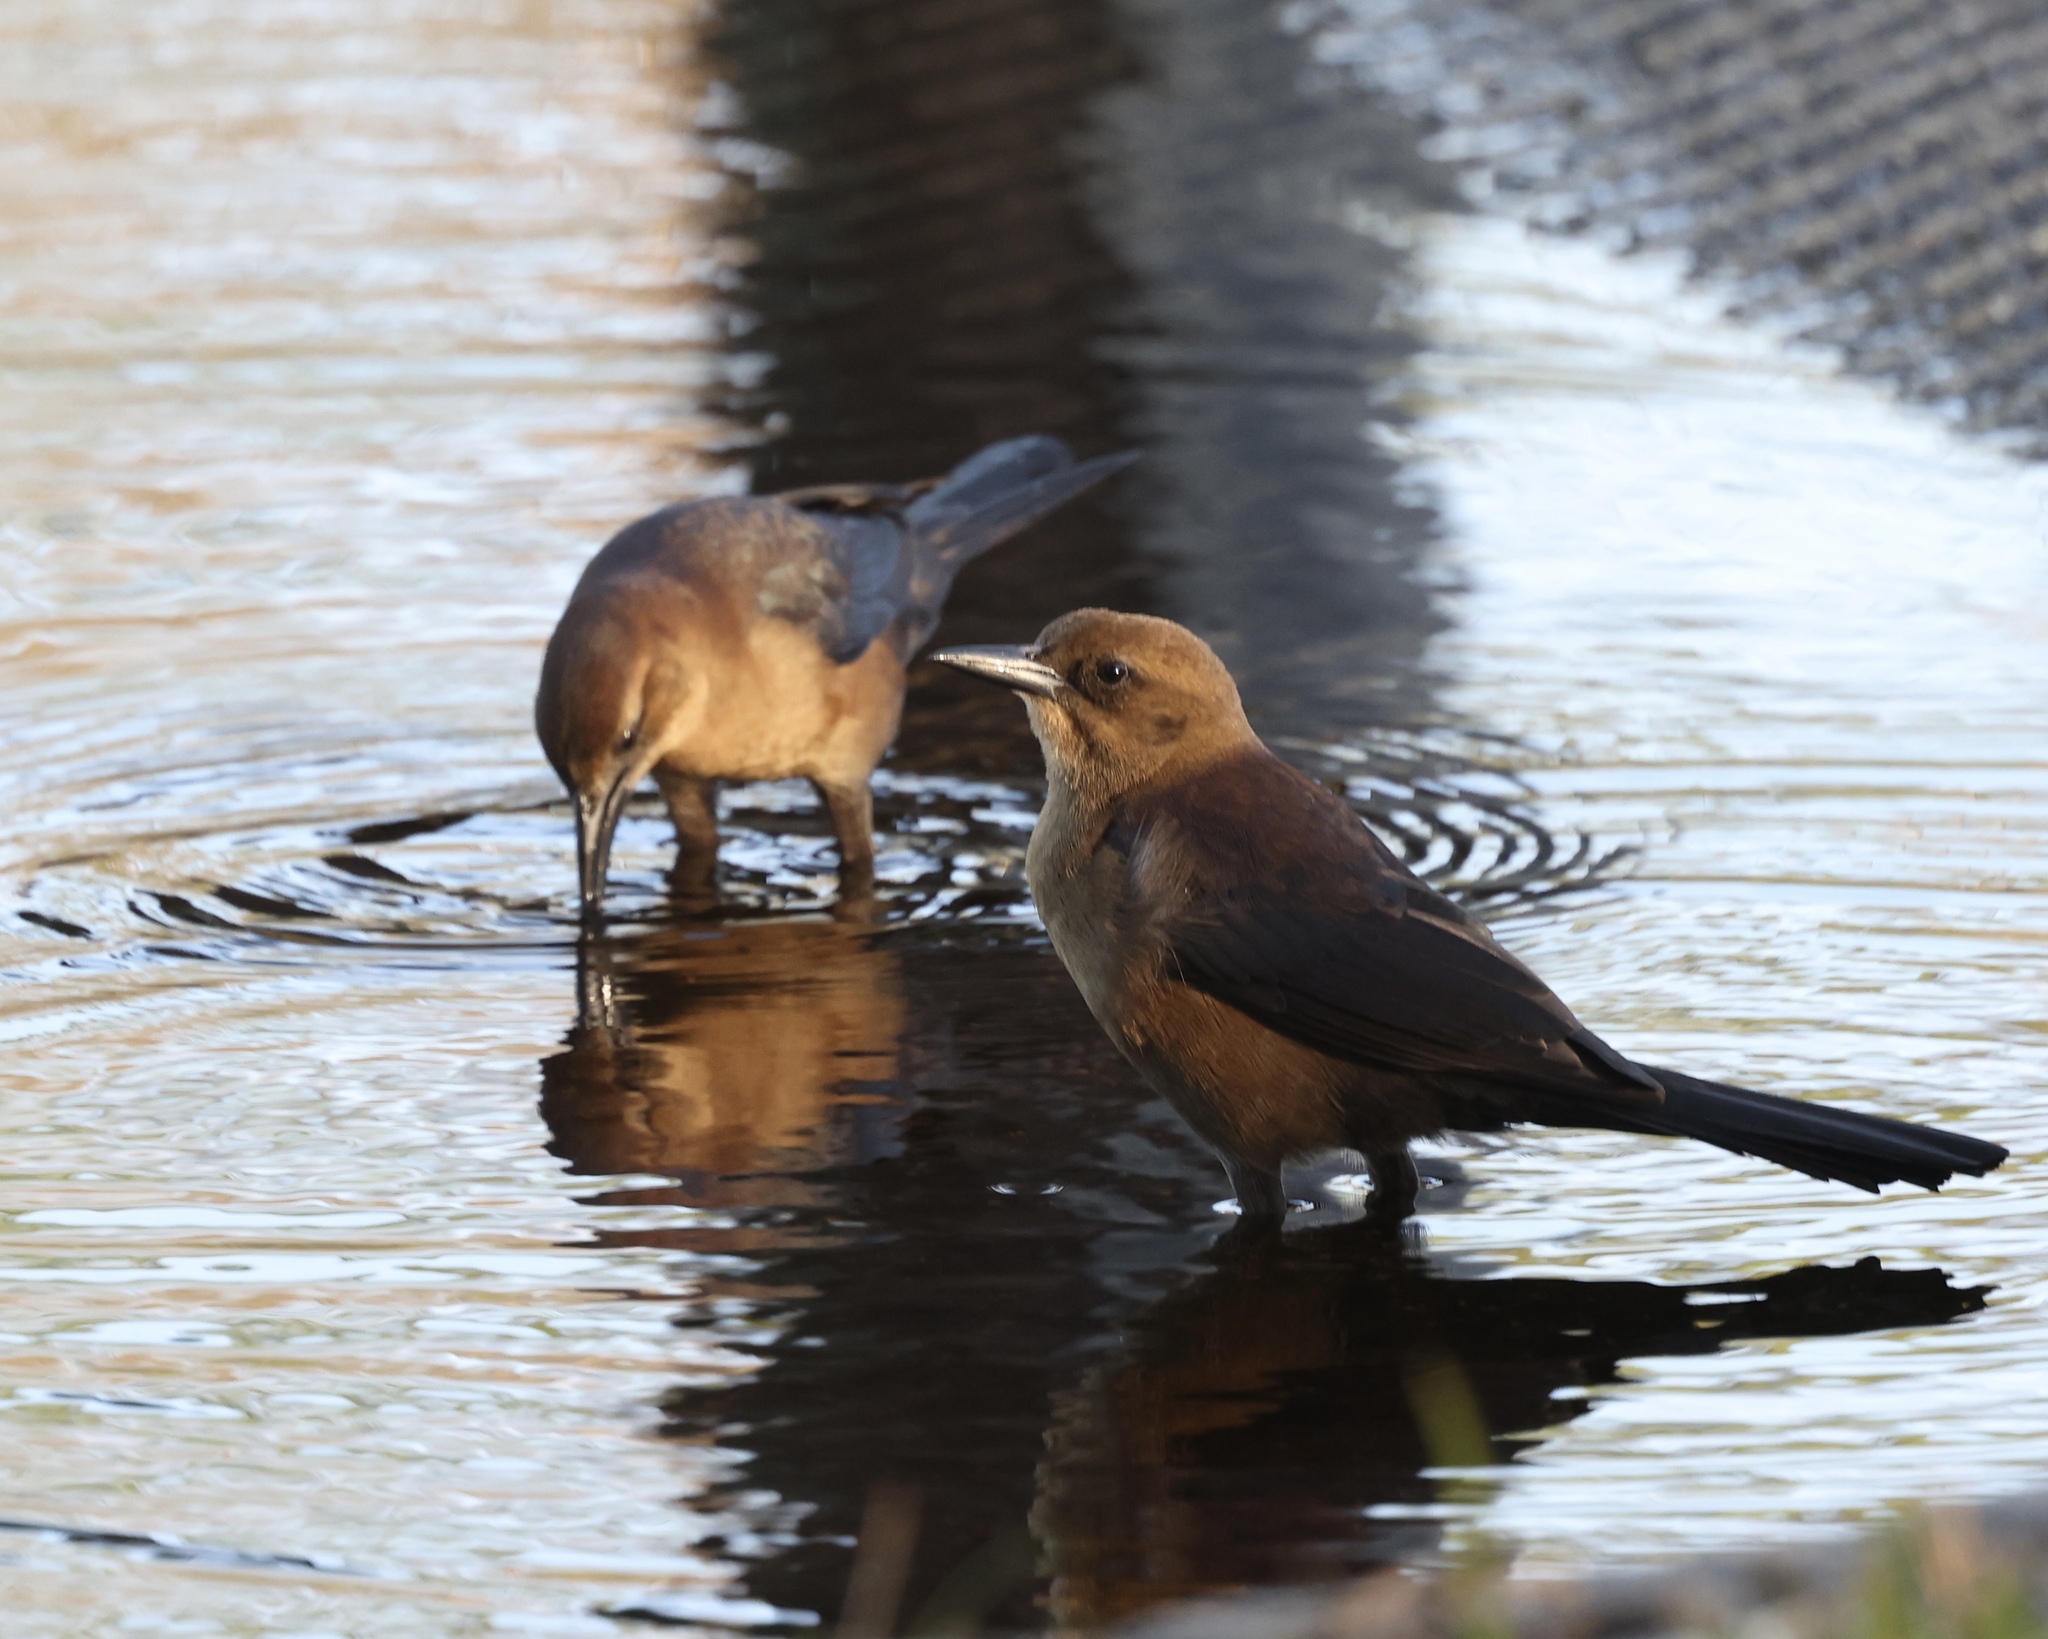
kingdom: Animalia
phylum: Chordata
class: Aves
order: Passeriformes
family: Icteridae
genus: Quiscalus
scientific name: Quiscalus major
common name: Boat-tailed grackle
